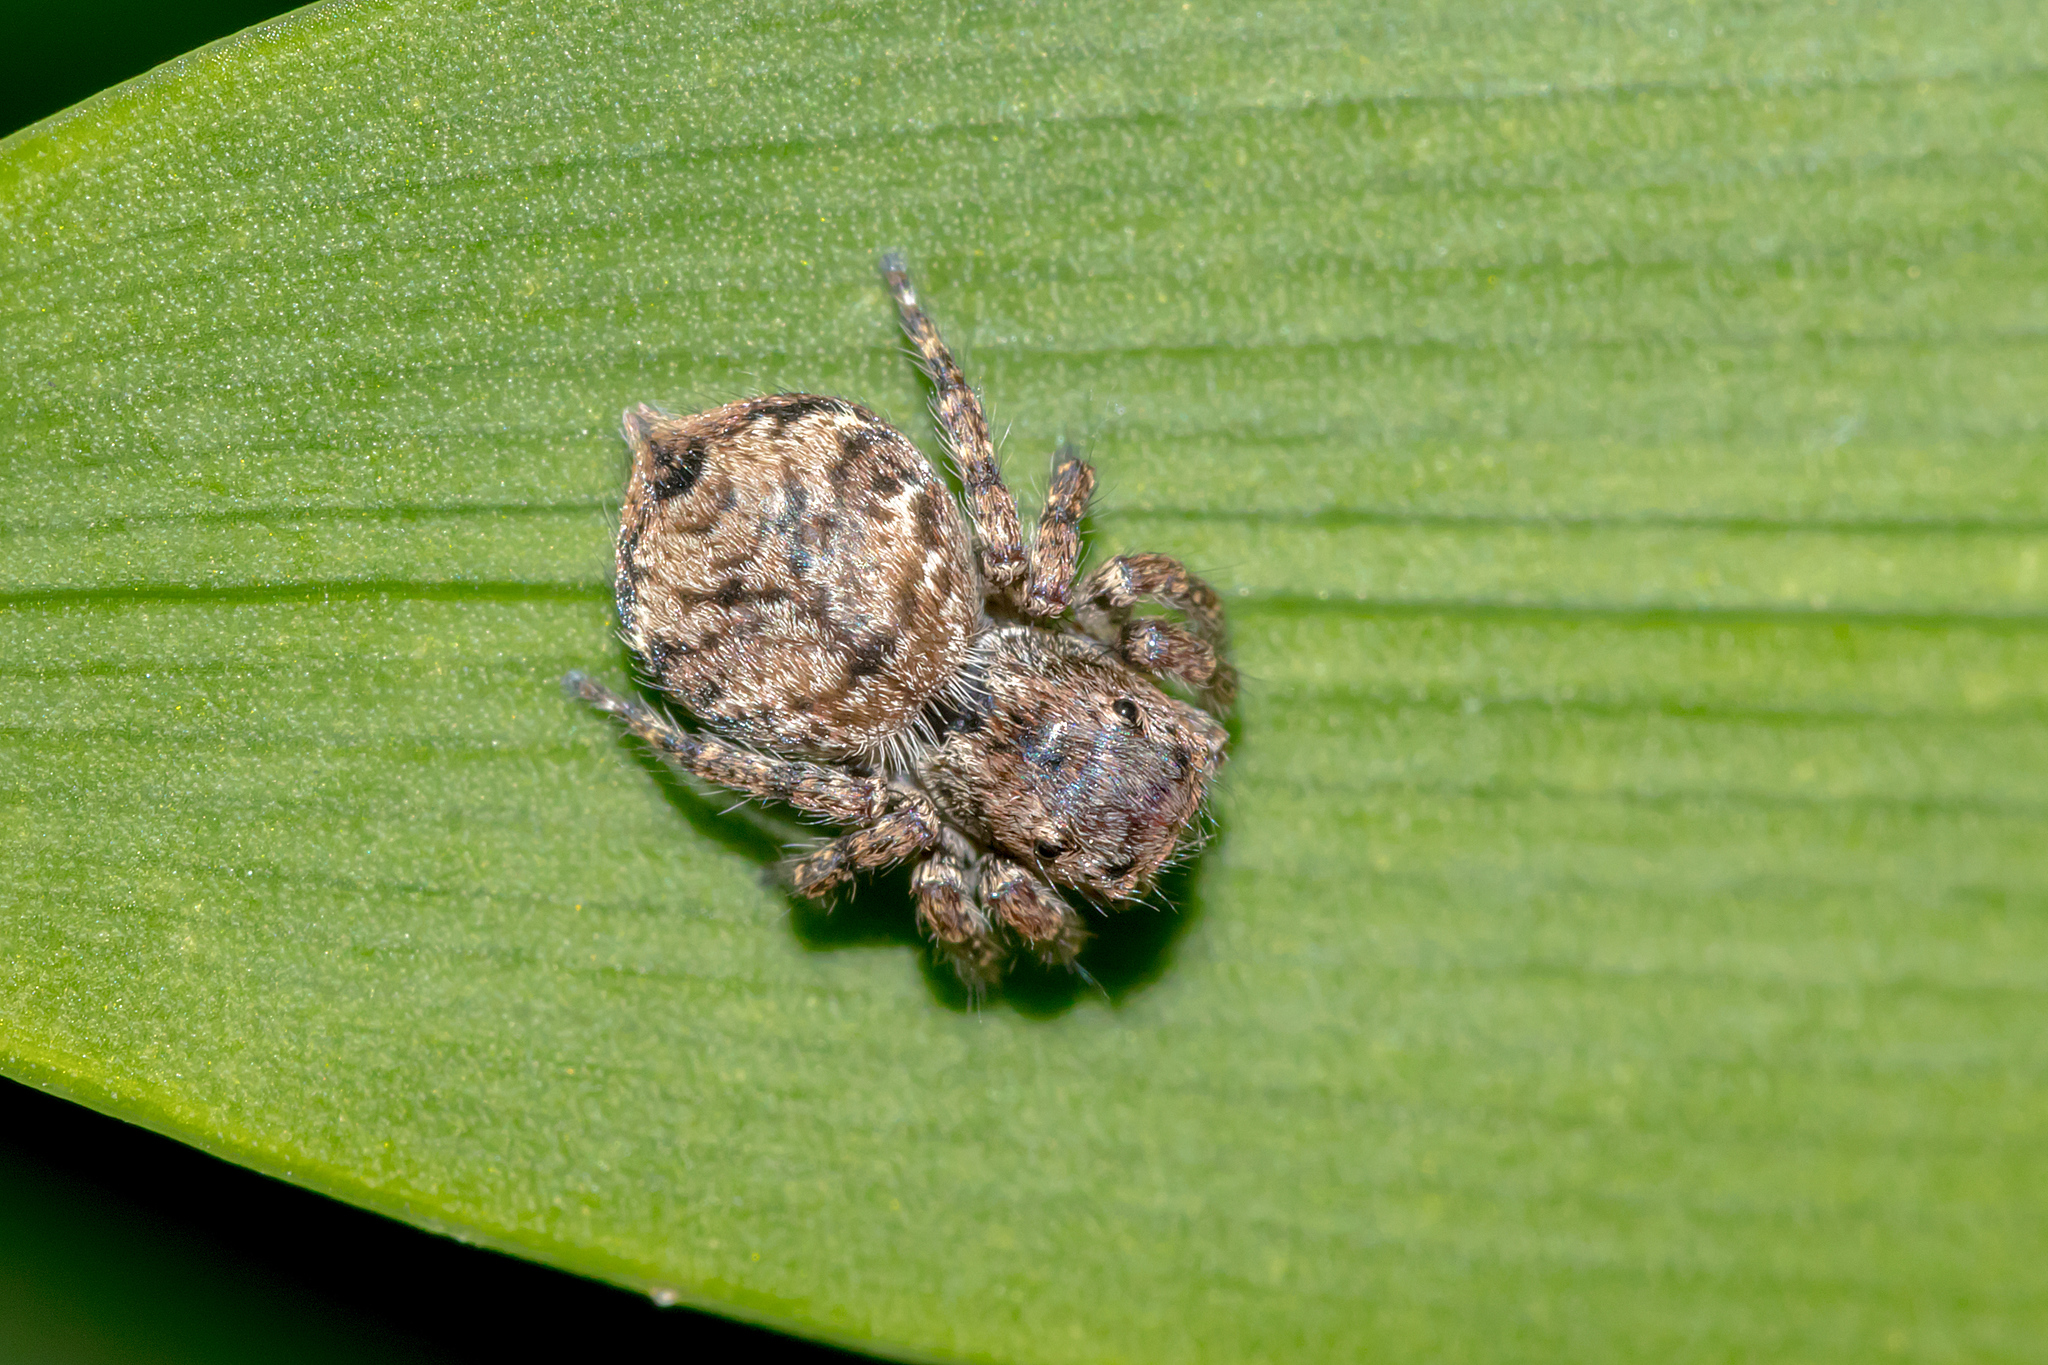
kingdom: Animalia
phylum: Arthropoda
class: Arachnida
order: Araneae
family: Salticidae
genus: Servaea
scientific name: Servaea villosa
